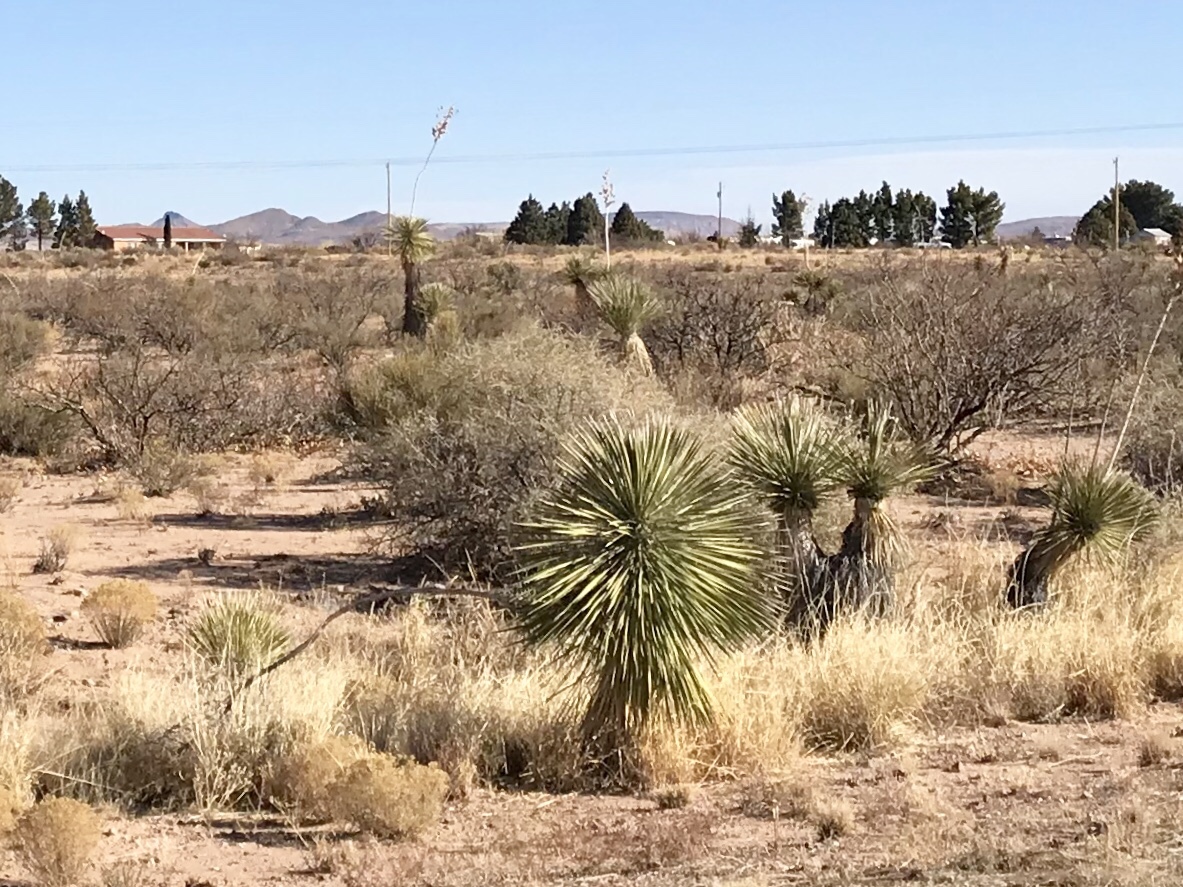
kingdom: Plantae
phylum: Tracheophyta
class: Liliopsida
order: Asparagales
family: Asparagaceae
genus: Yucca
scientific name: Yucca elata
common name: Palmella
